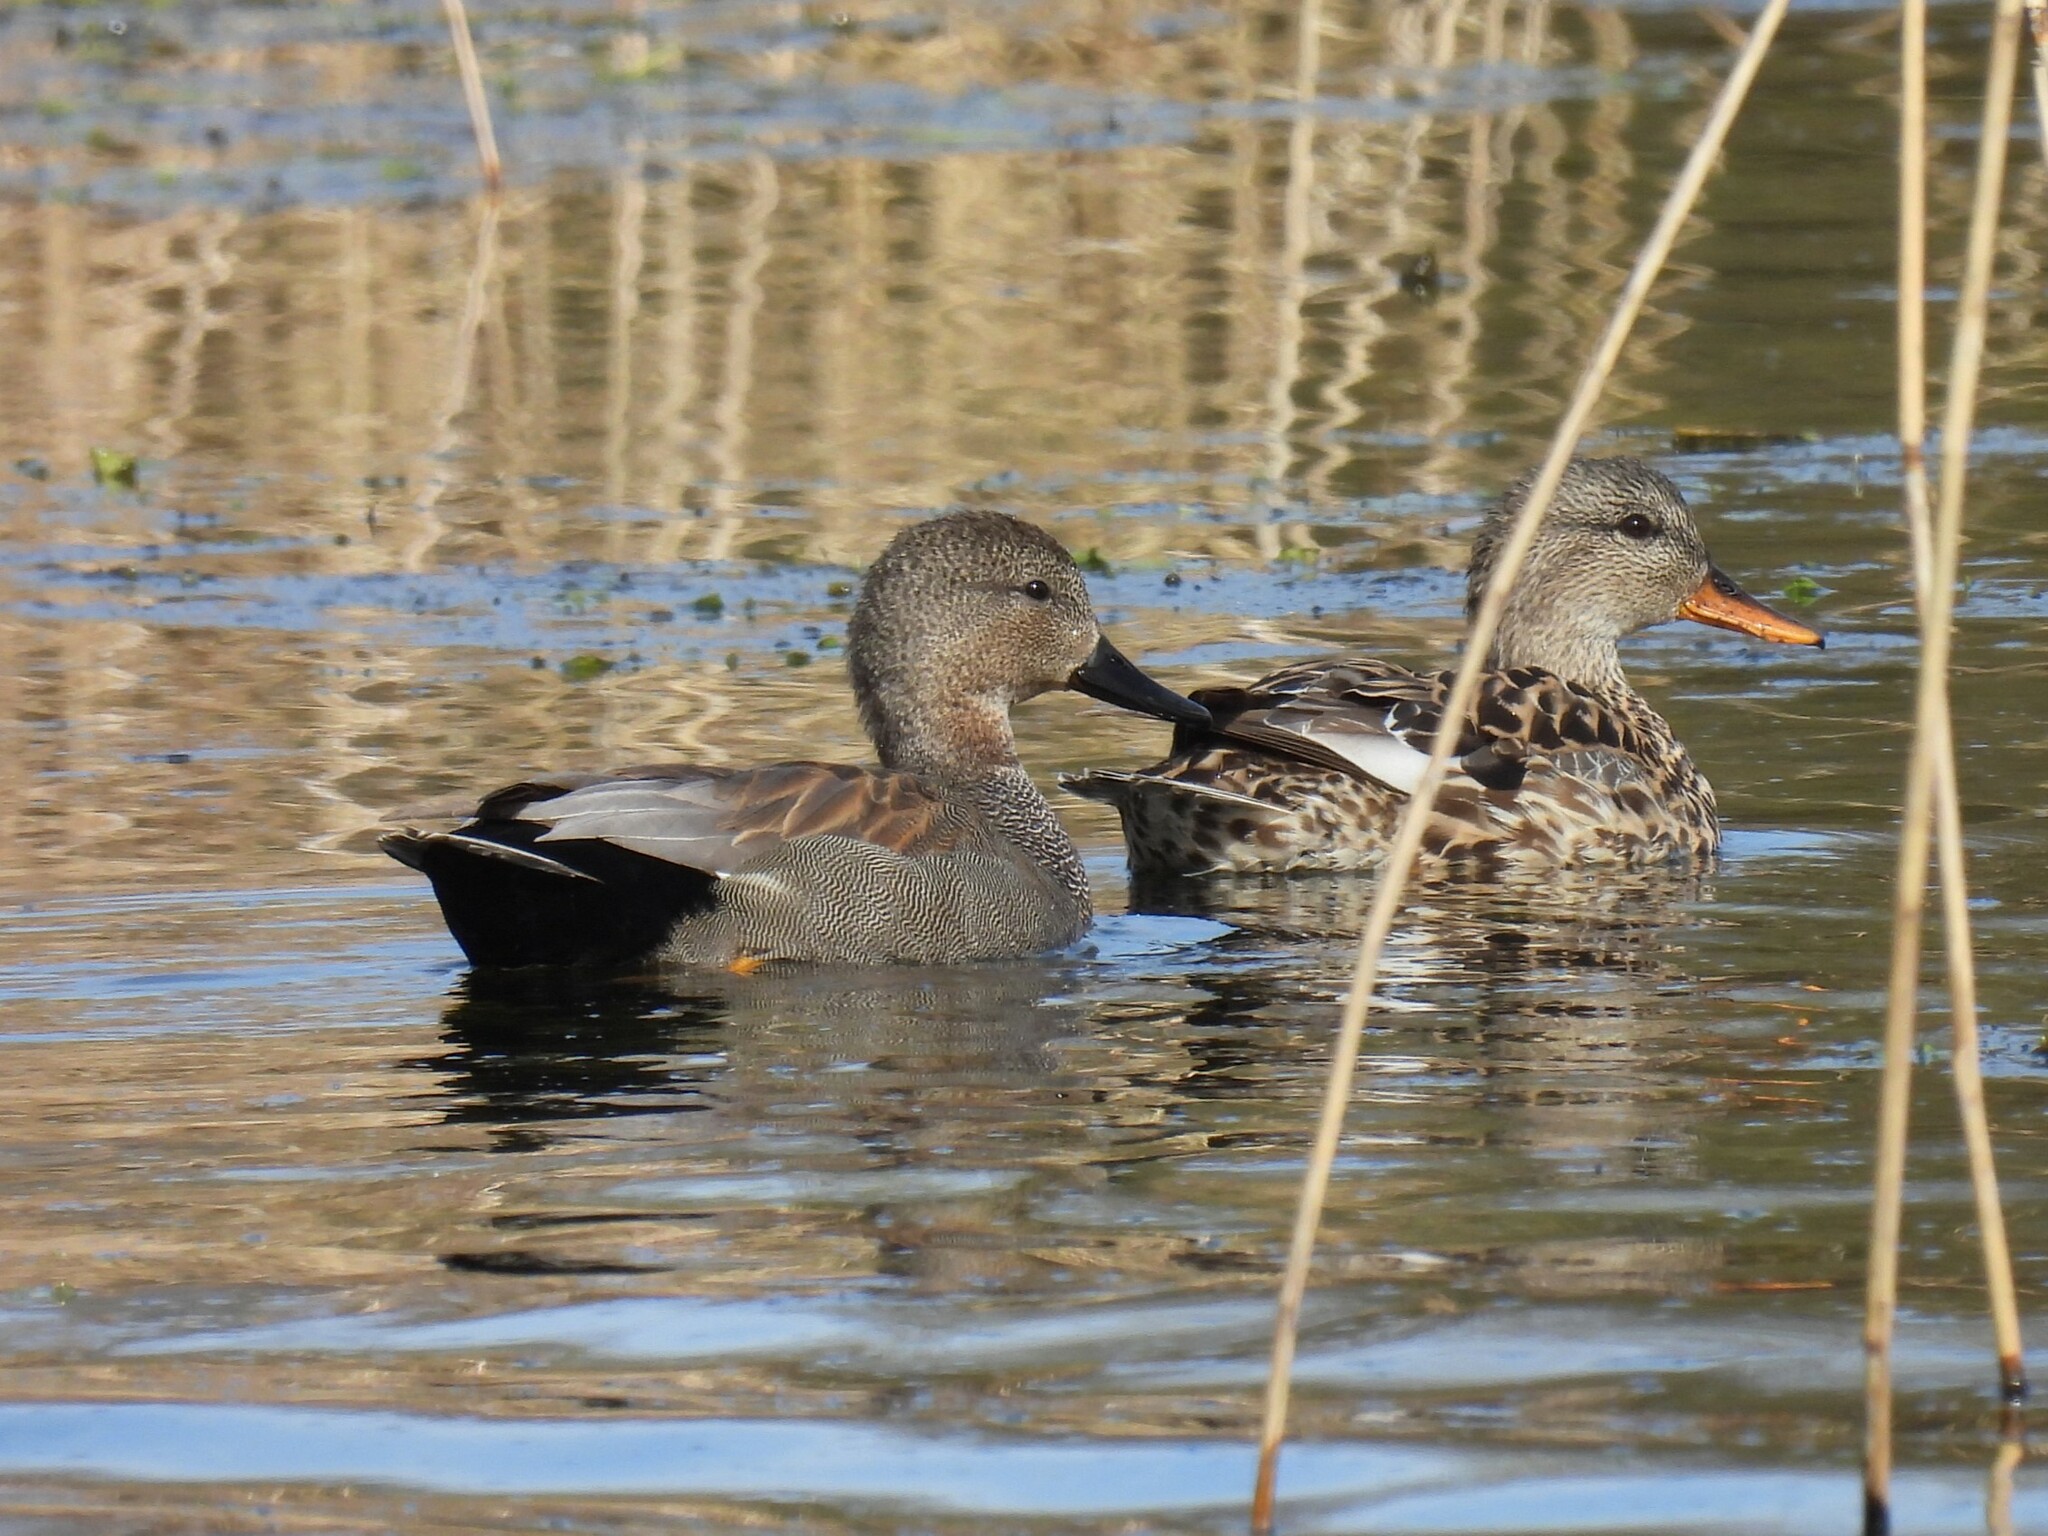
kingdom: Animalia
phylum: Chordata
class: Aves
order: Anseriformes
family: Anatidae
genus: Mareca
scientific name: Mareca strepera
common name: Gadwall
